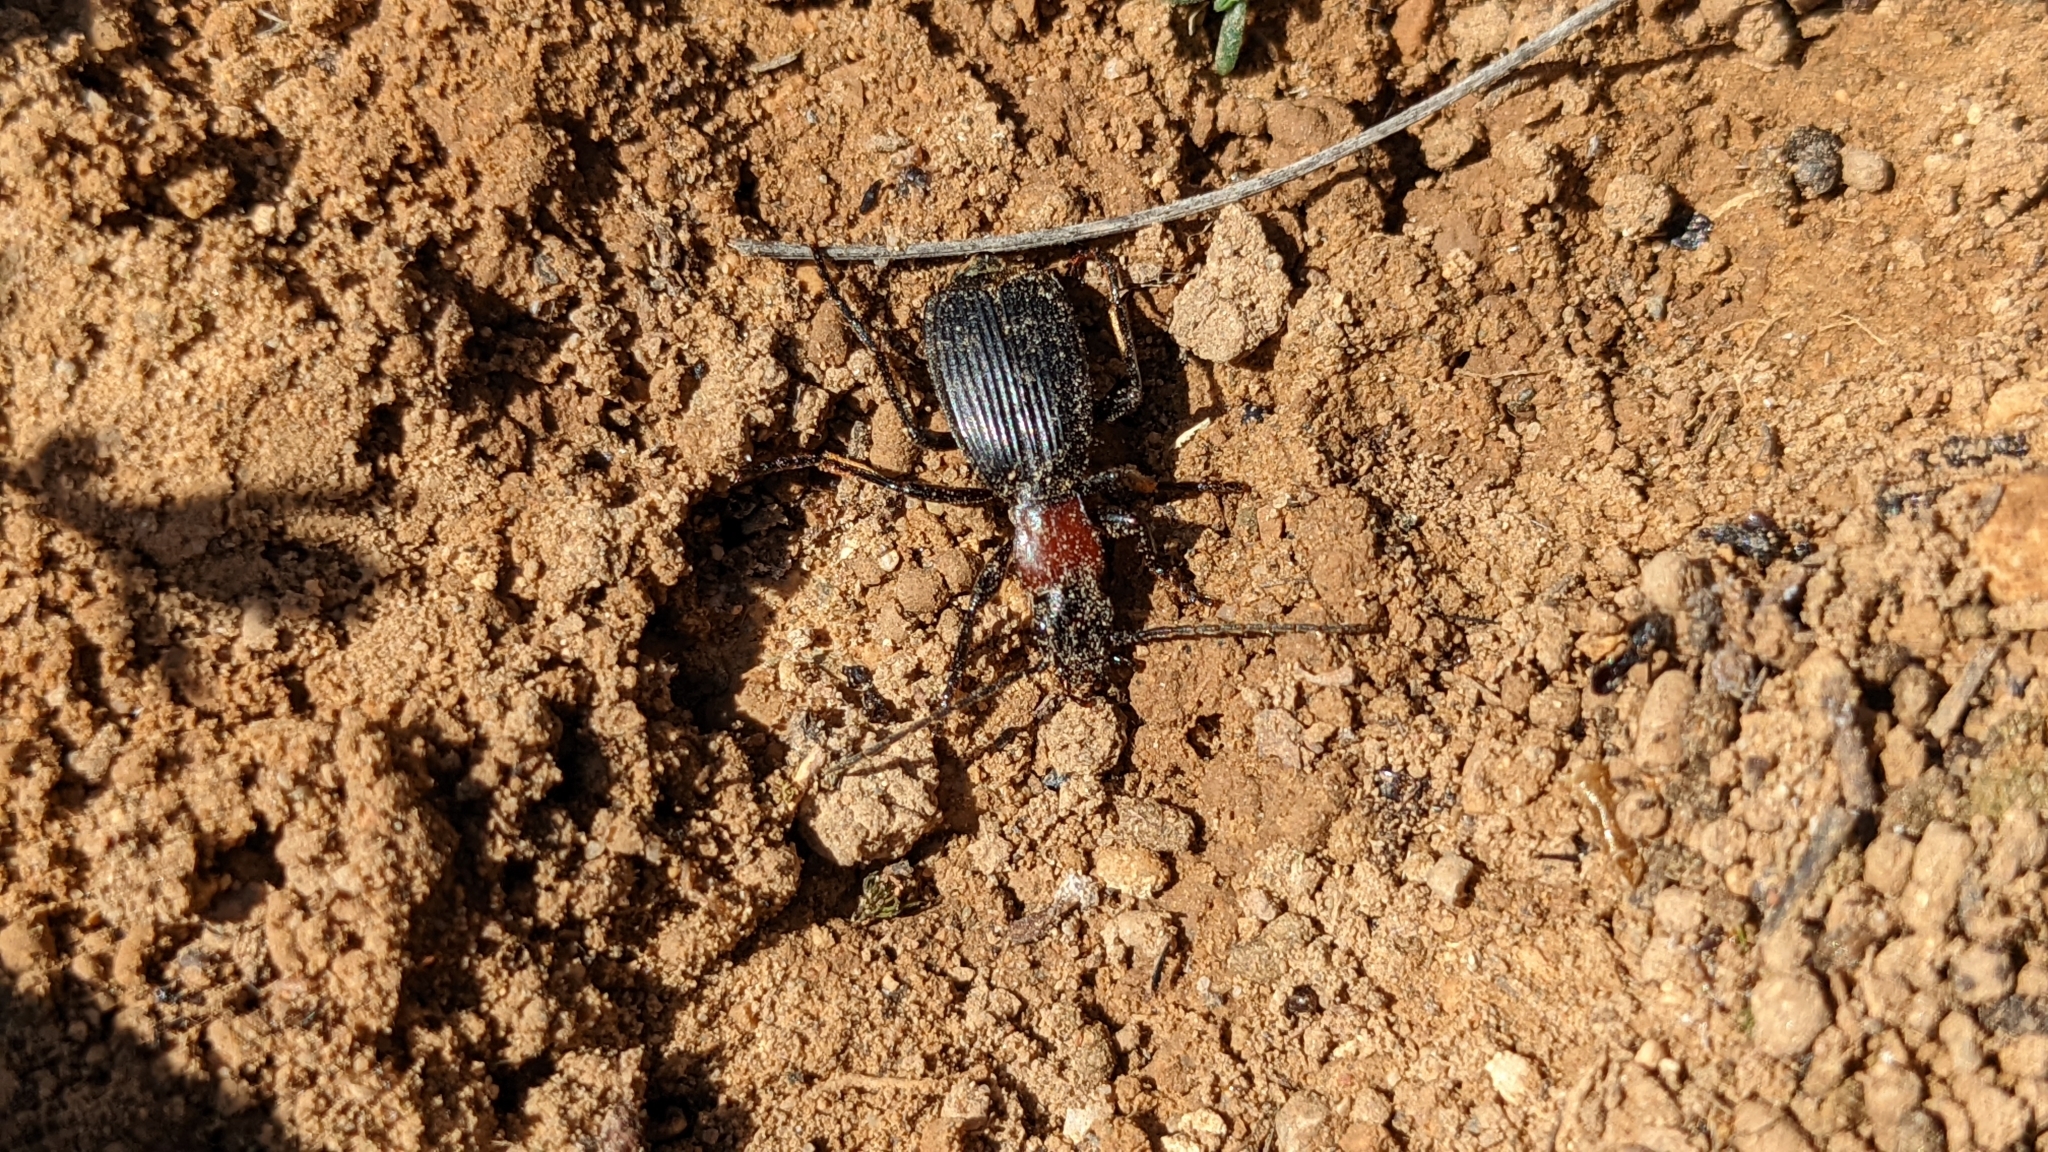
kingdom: Animalia
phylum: Arthropoda
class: Insecta
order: Coleoptera
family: Carabidae
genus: Aptinus
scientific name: Aptinus displosor
